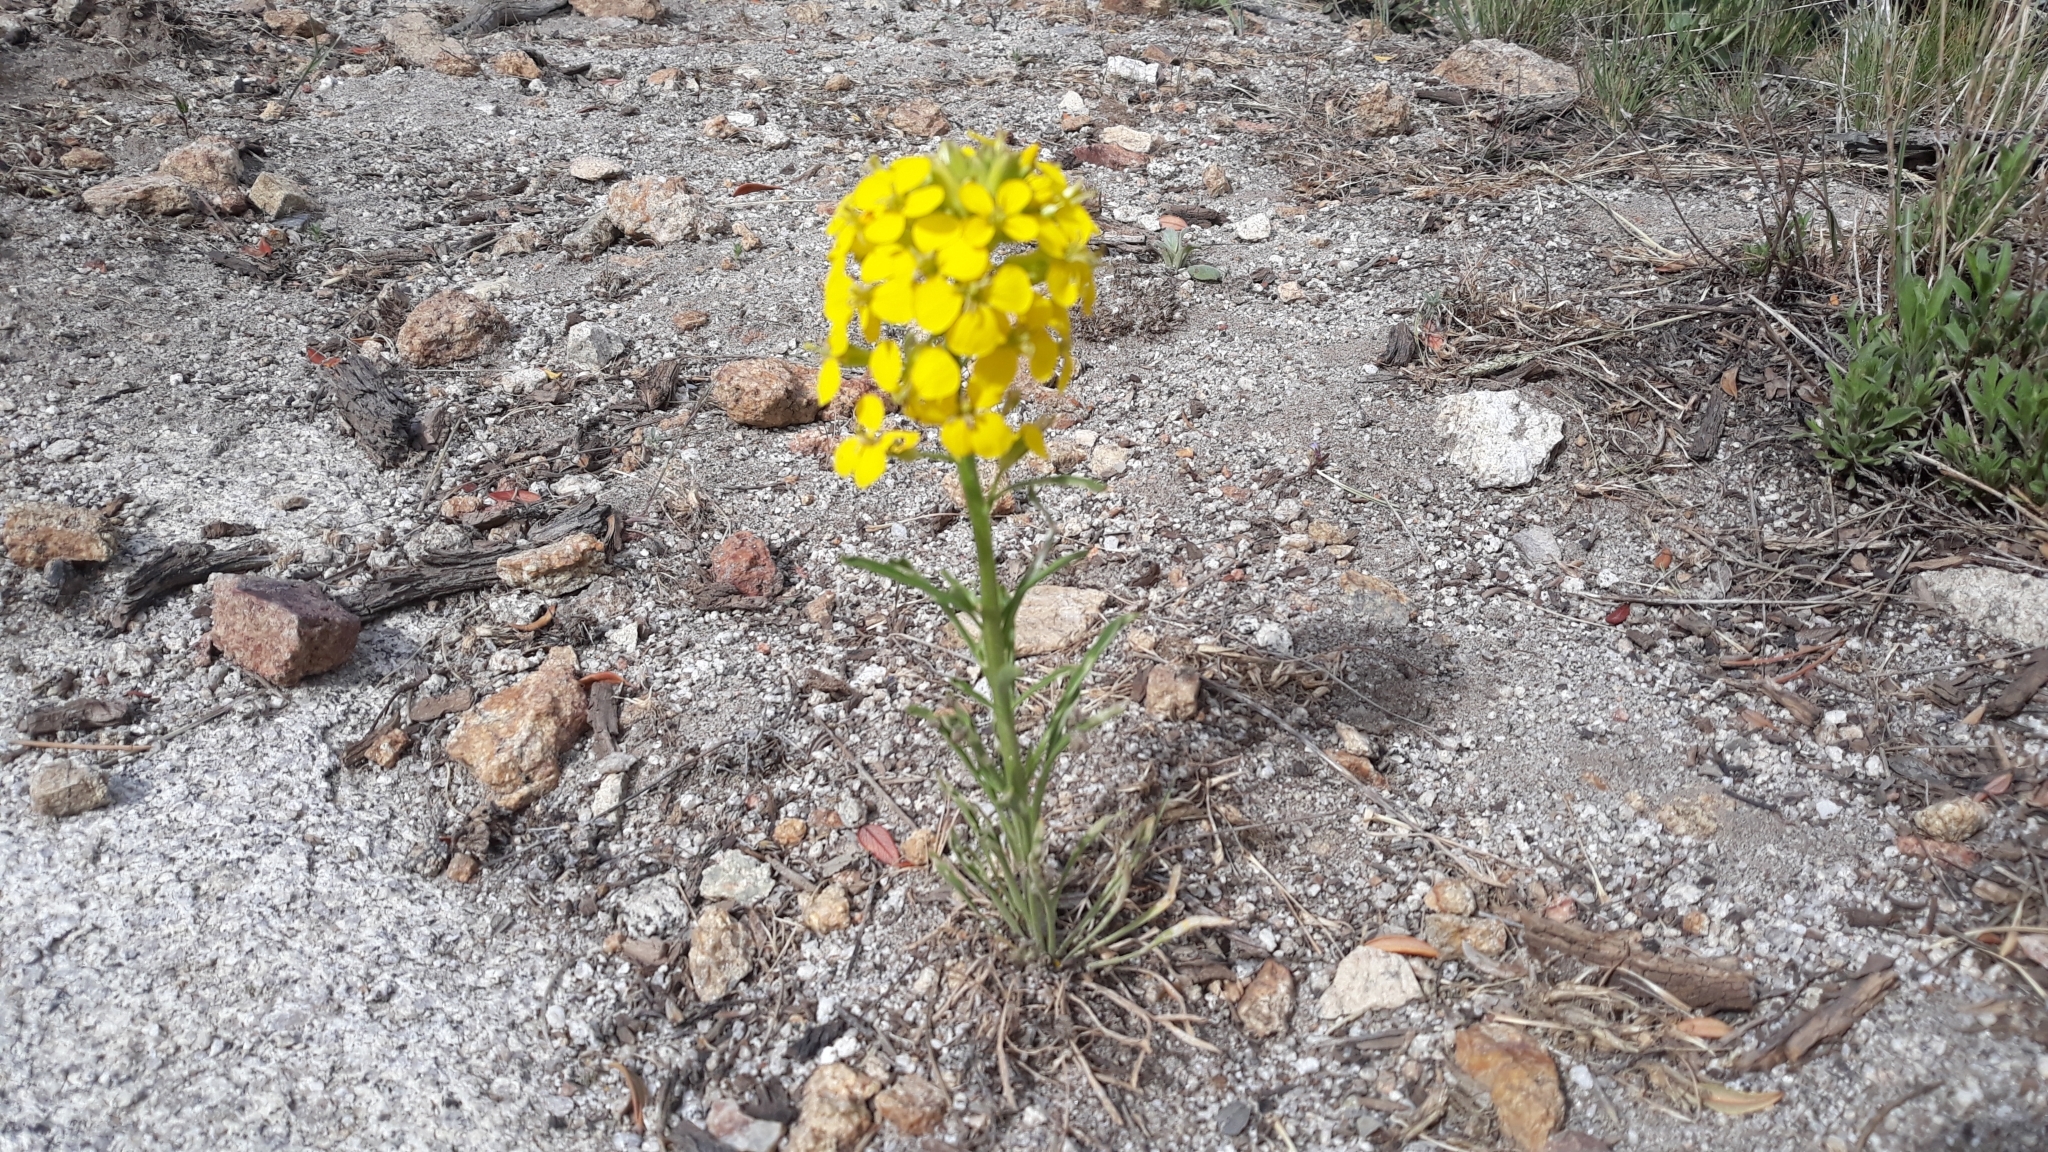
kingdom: Plantae
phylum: Tracheophyta
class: Magnoliopsida
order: Brassicales
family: Brassicaceae
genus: Erysimum
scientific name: Erysimum asperum
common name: Western wallflower
